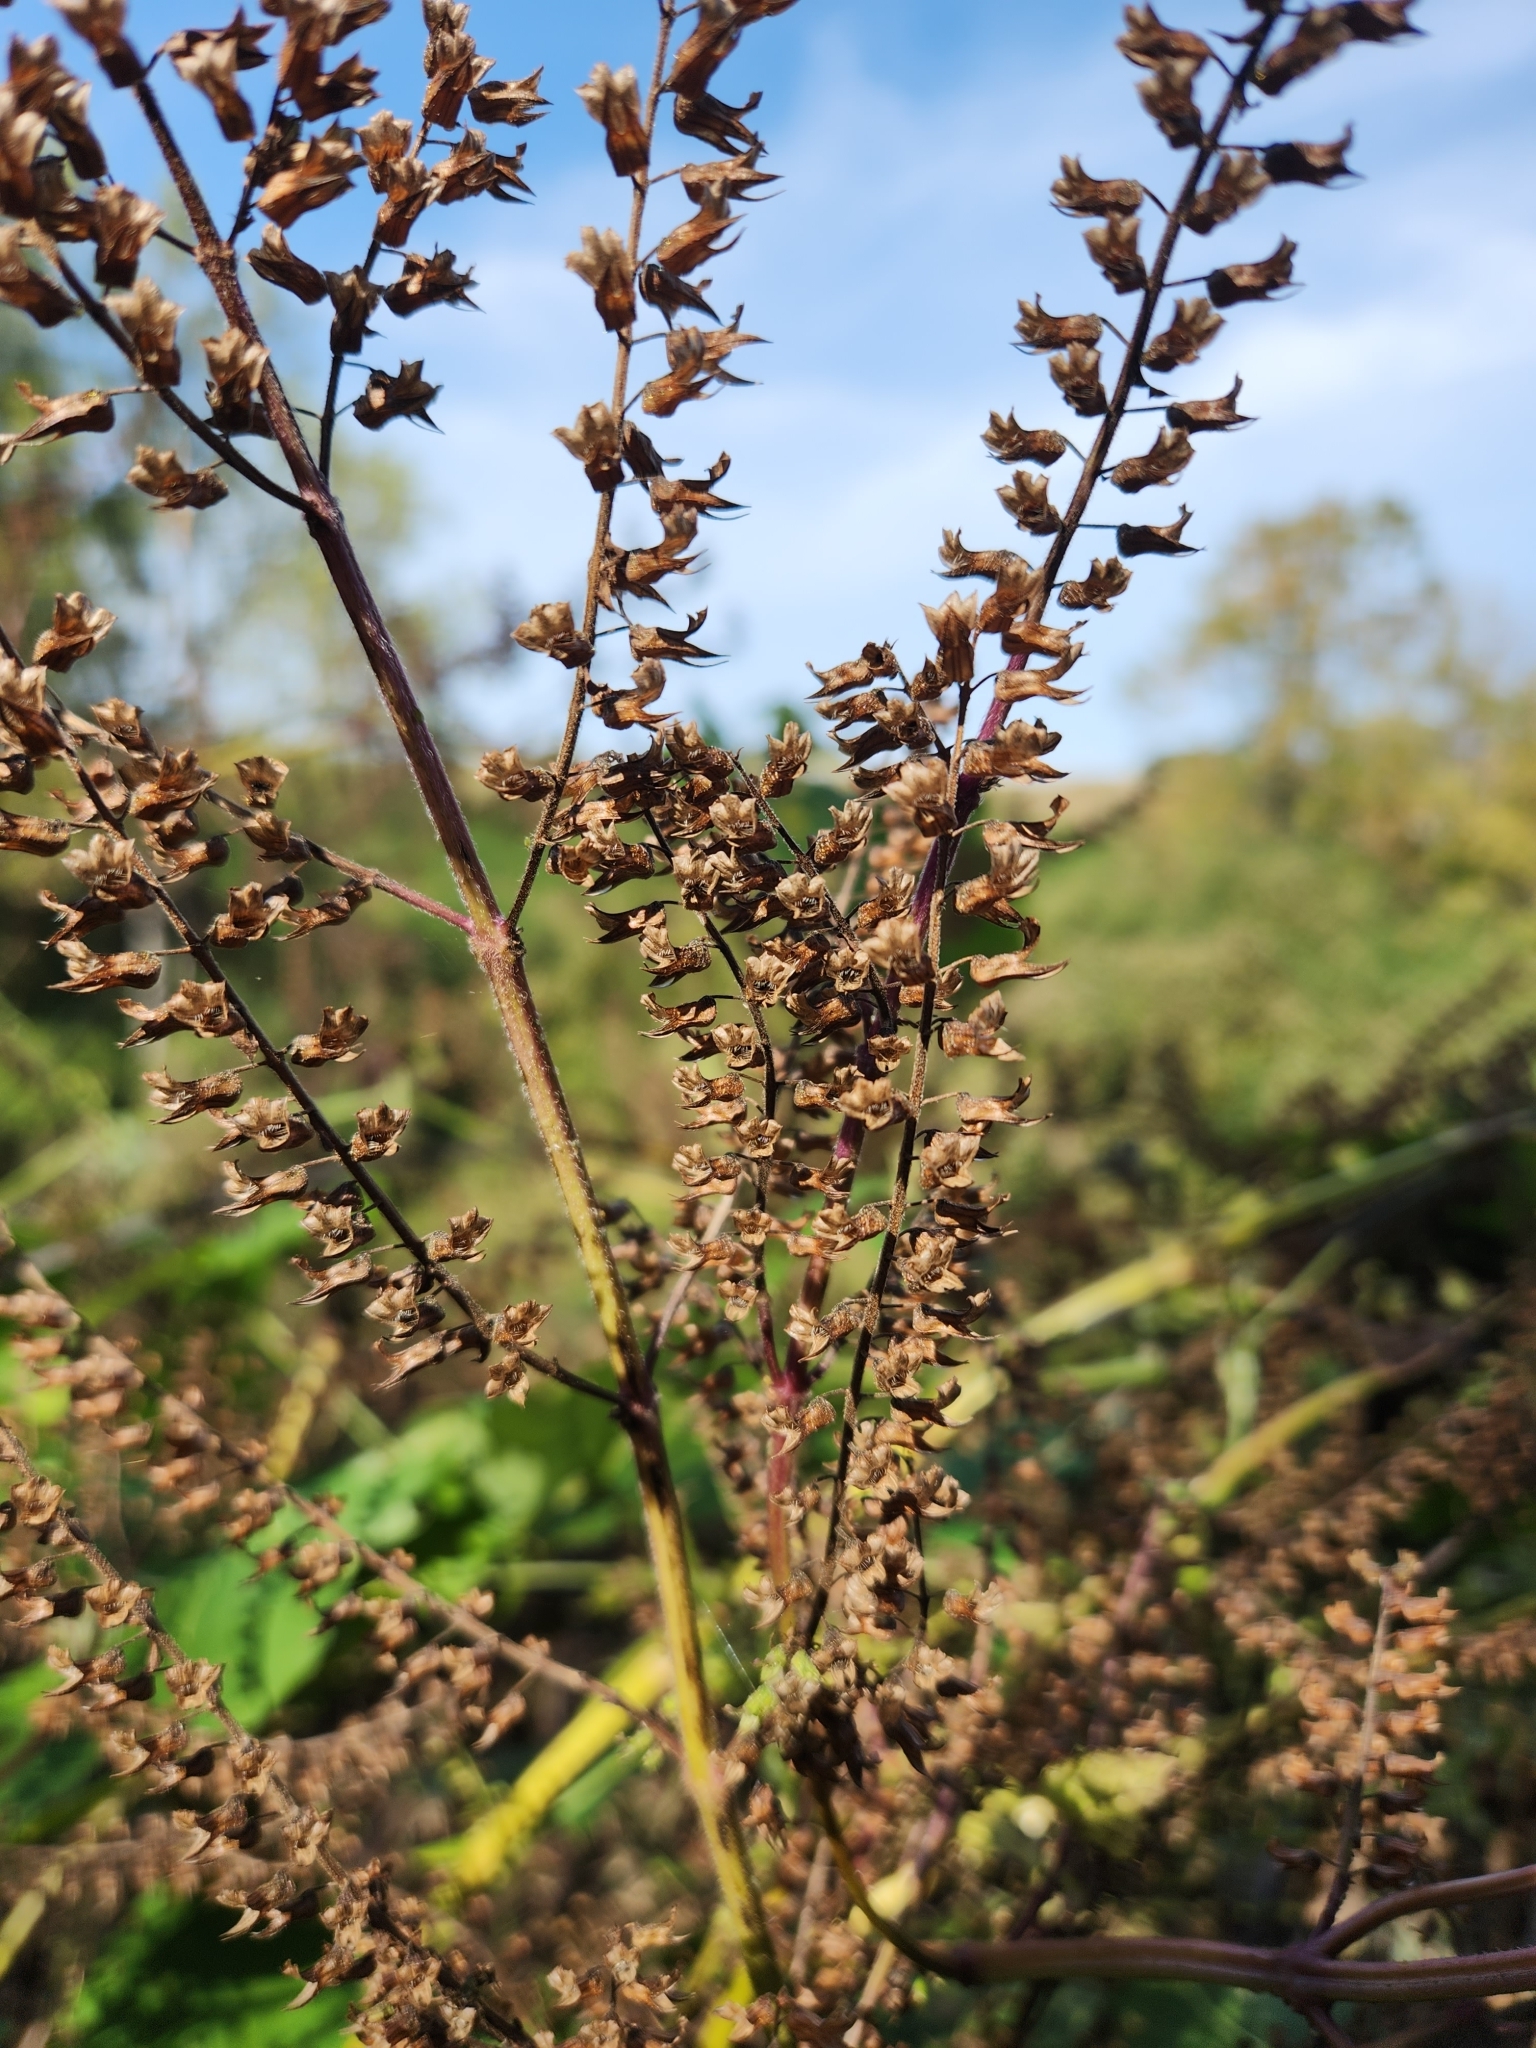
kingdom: Plantae
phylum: Tracheophyta
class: Magnoliopsida
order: Lamiales
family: Lamiaceae
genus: Perilla
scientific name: Perilla frutescens
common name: Perilla
